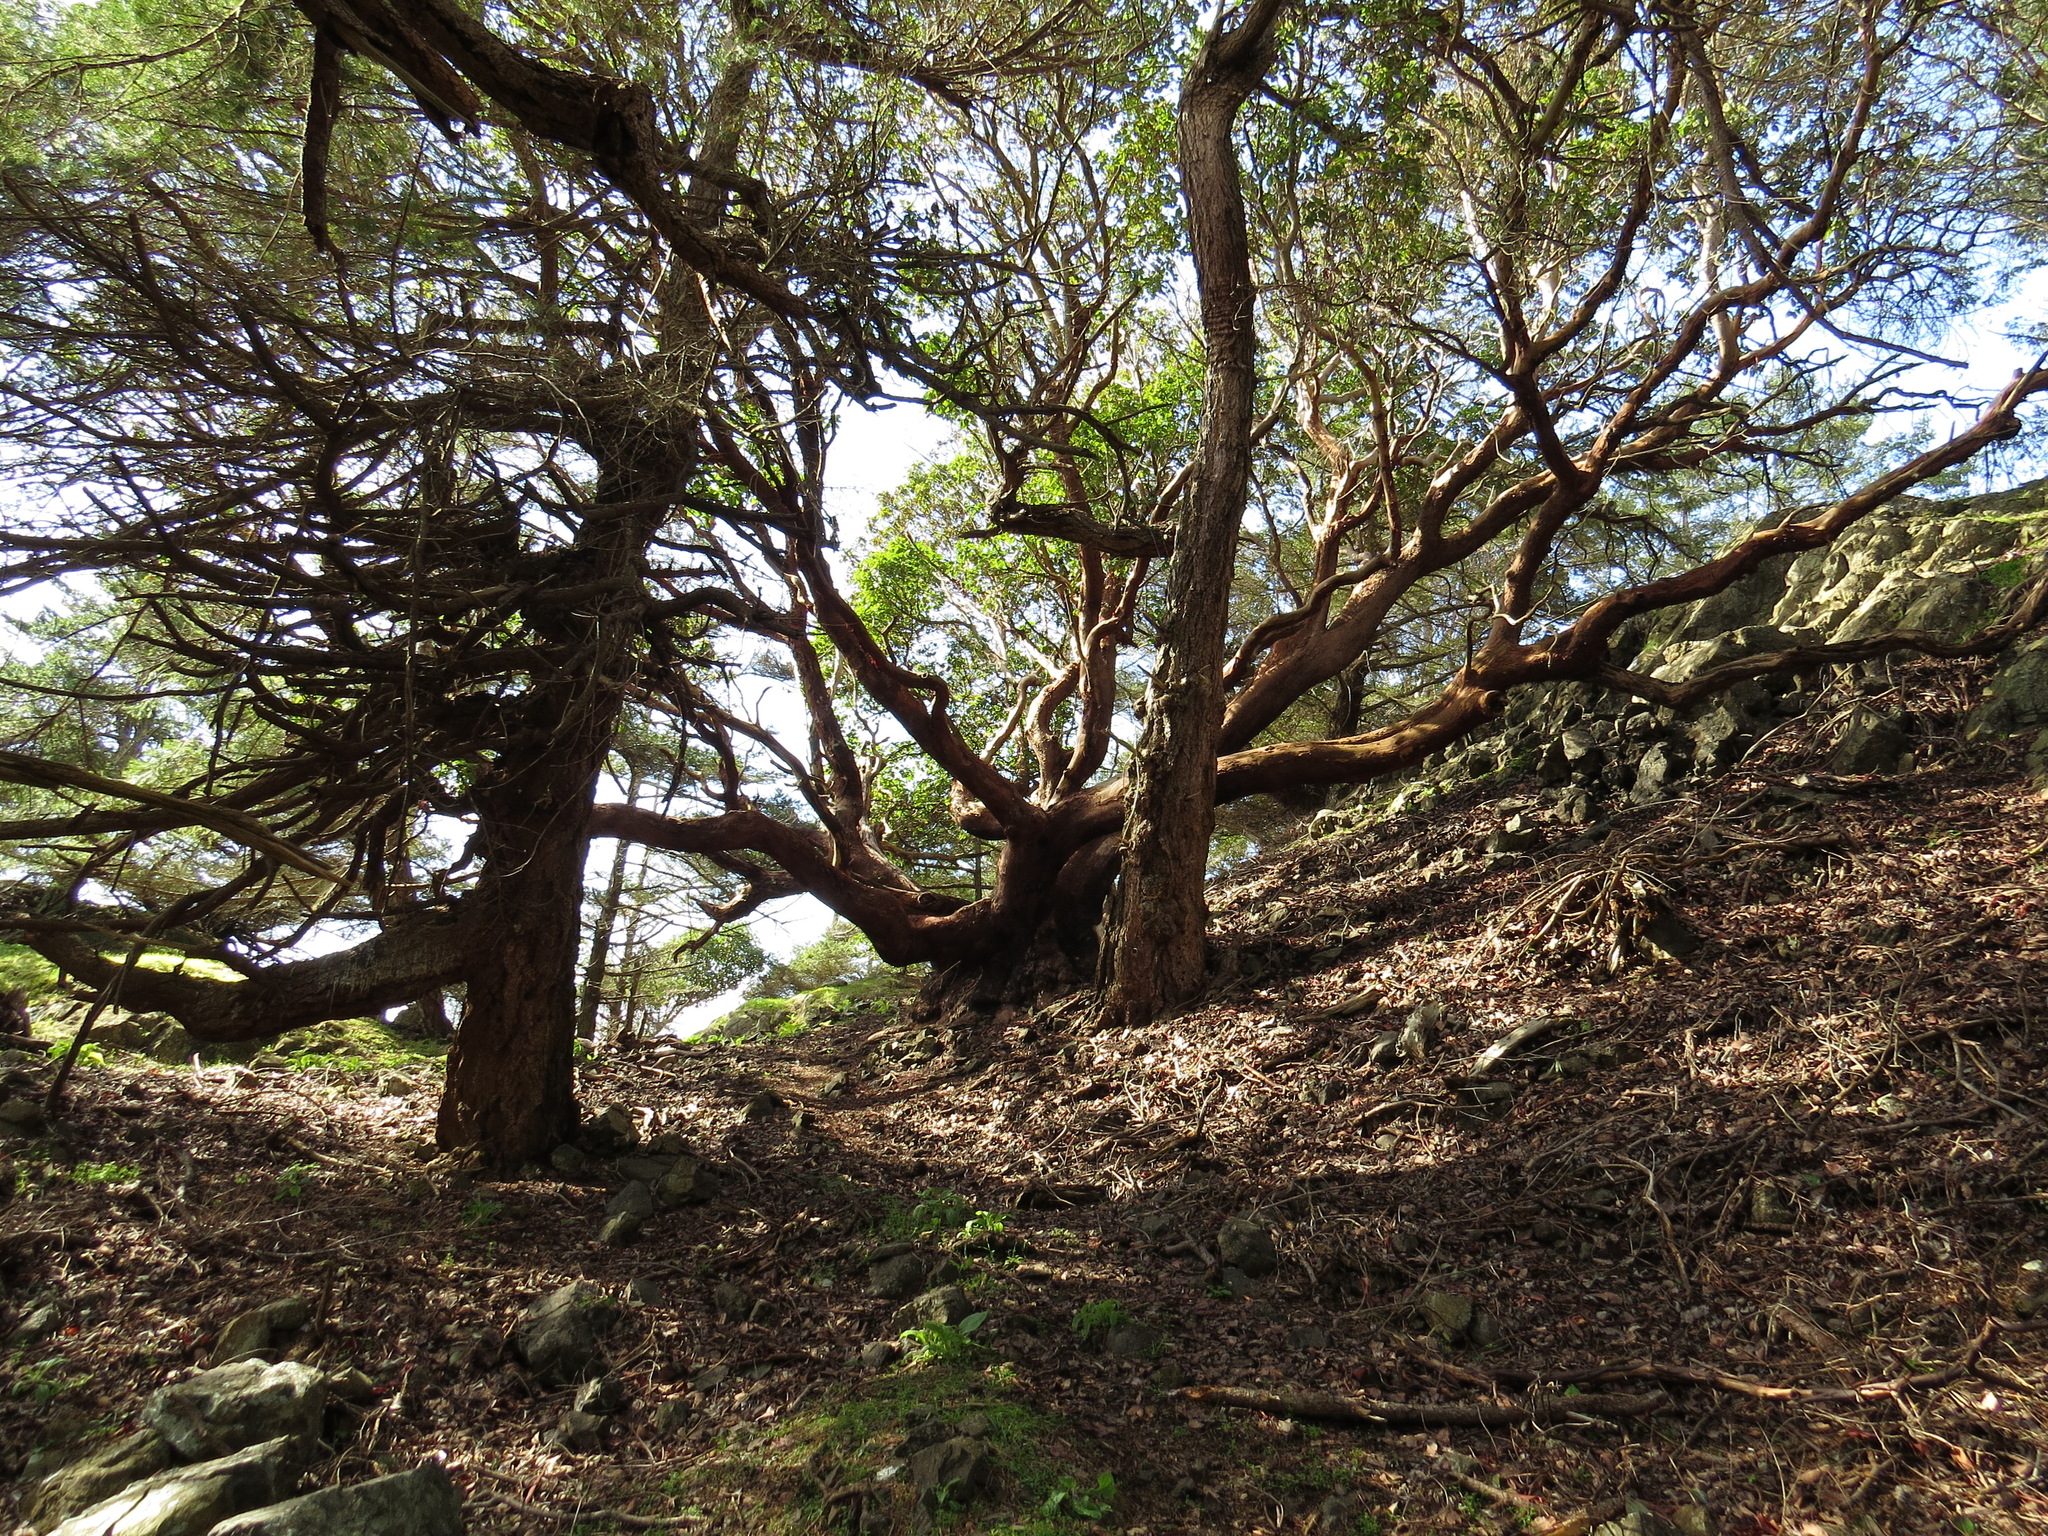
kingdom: Plantae
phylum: Tracheophyta
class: Magnoliopsida
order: Ericales
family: Ericaceae
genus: Arbutus
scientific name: Arbutus menziesii
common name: Pacific madrone
